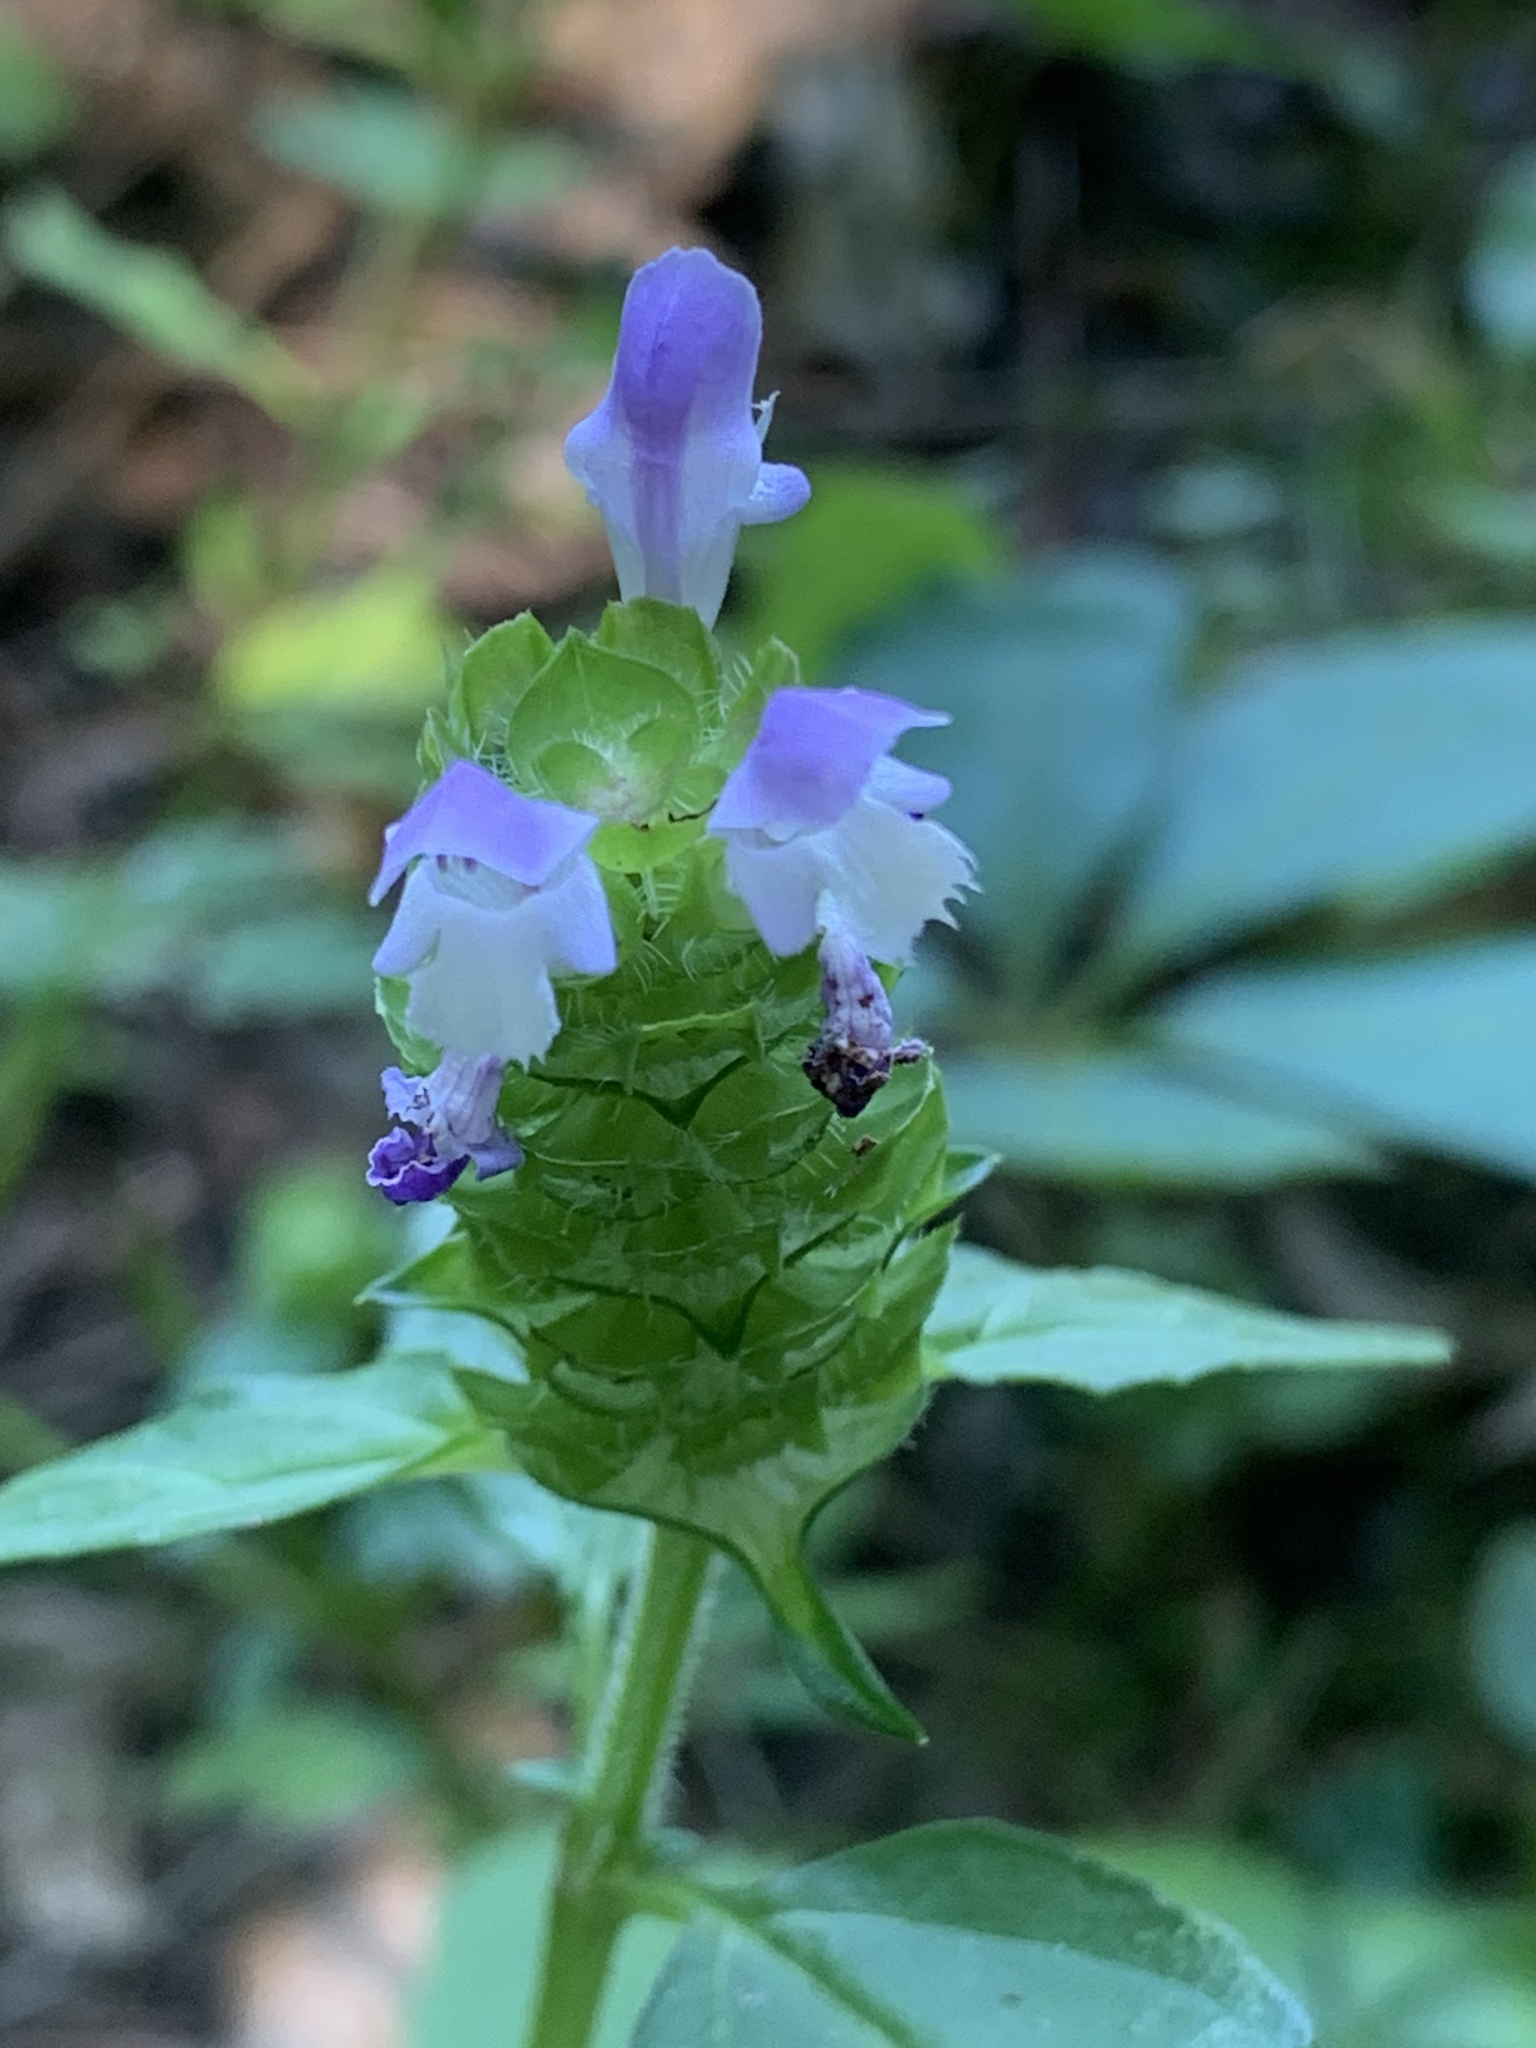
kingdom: Plantae
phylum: Tracheophyta
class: Magnoliopsida
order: Lamiales
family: Lamiaceae
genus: Prunella
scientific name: Prunella vulgaris
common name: Heal-all
